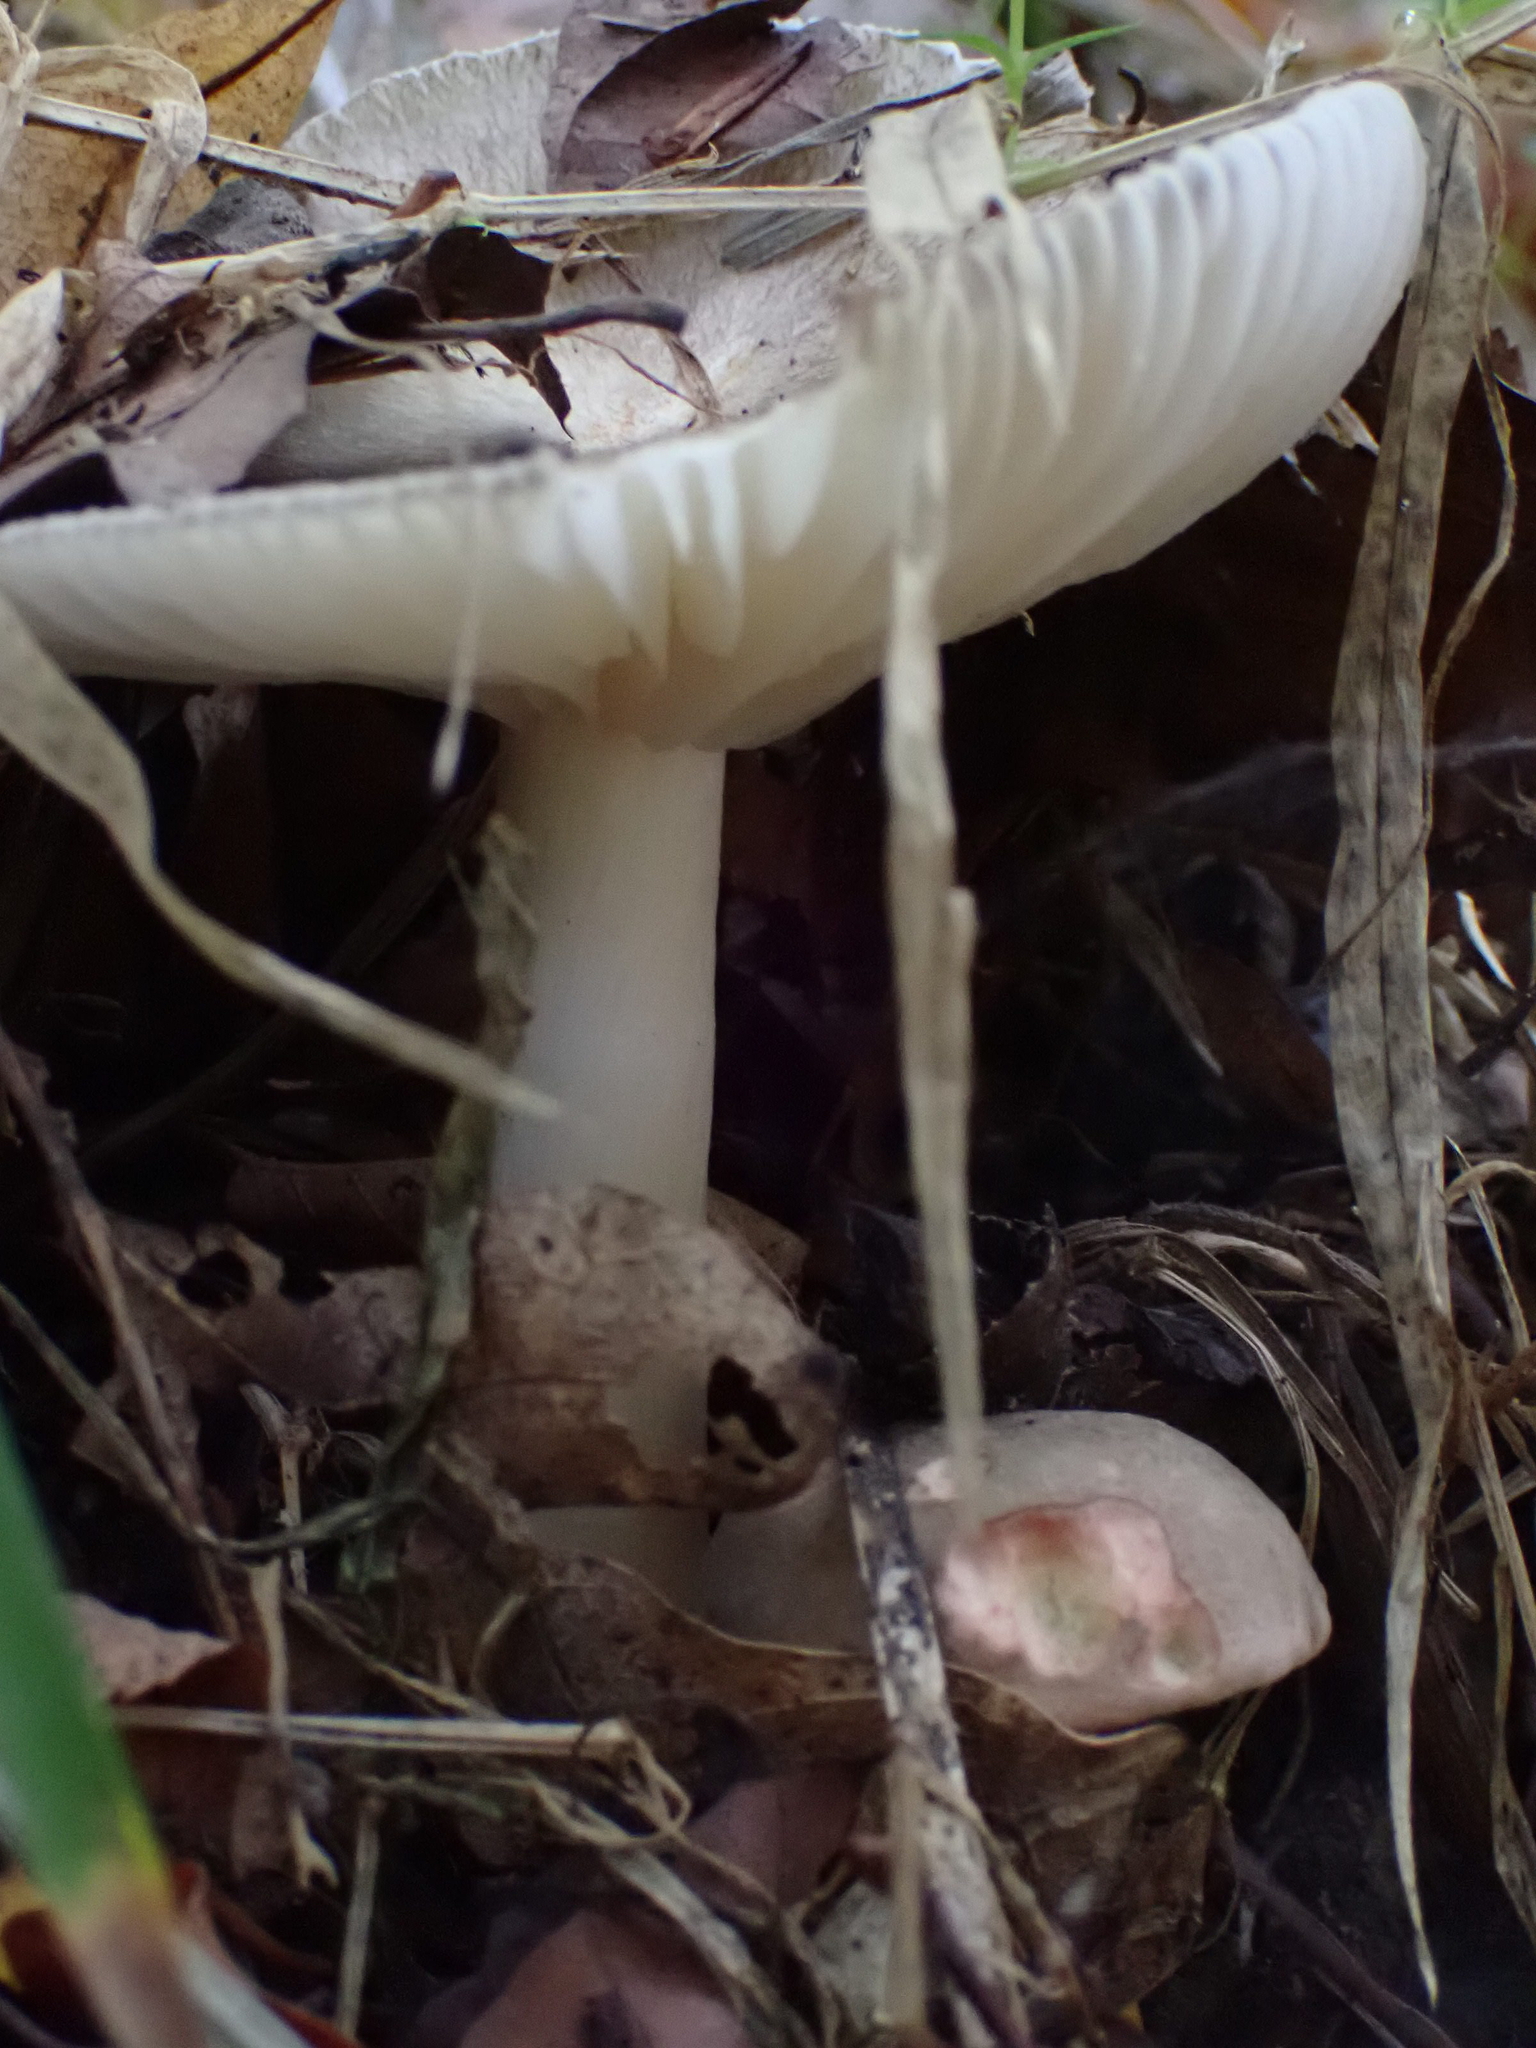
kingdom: Fungi
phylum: Basidiomycota
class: Agaricomycetes
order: Agaricales
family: Tricholomataceae
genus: Megacollybia
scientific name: Megacollybia platyphylla
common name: Whitelaced shank
